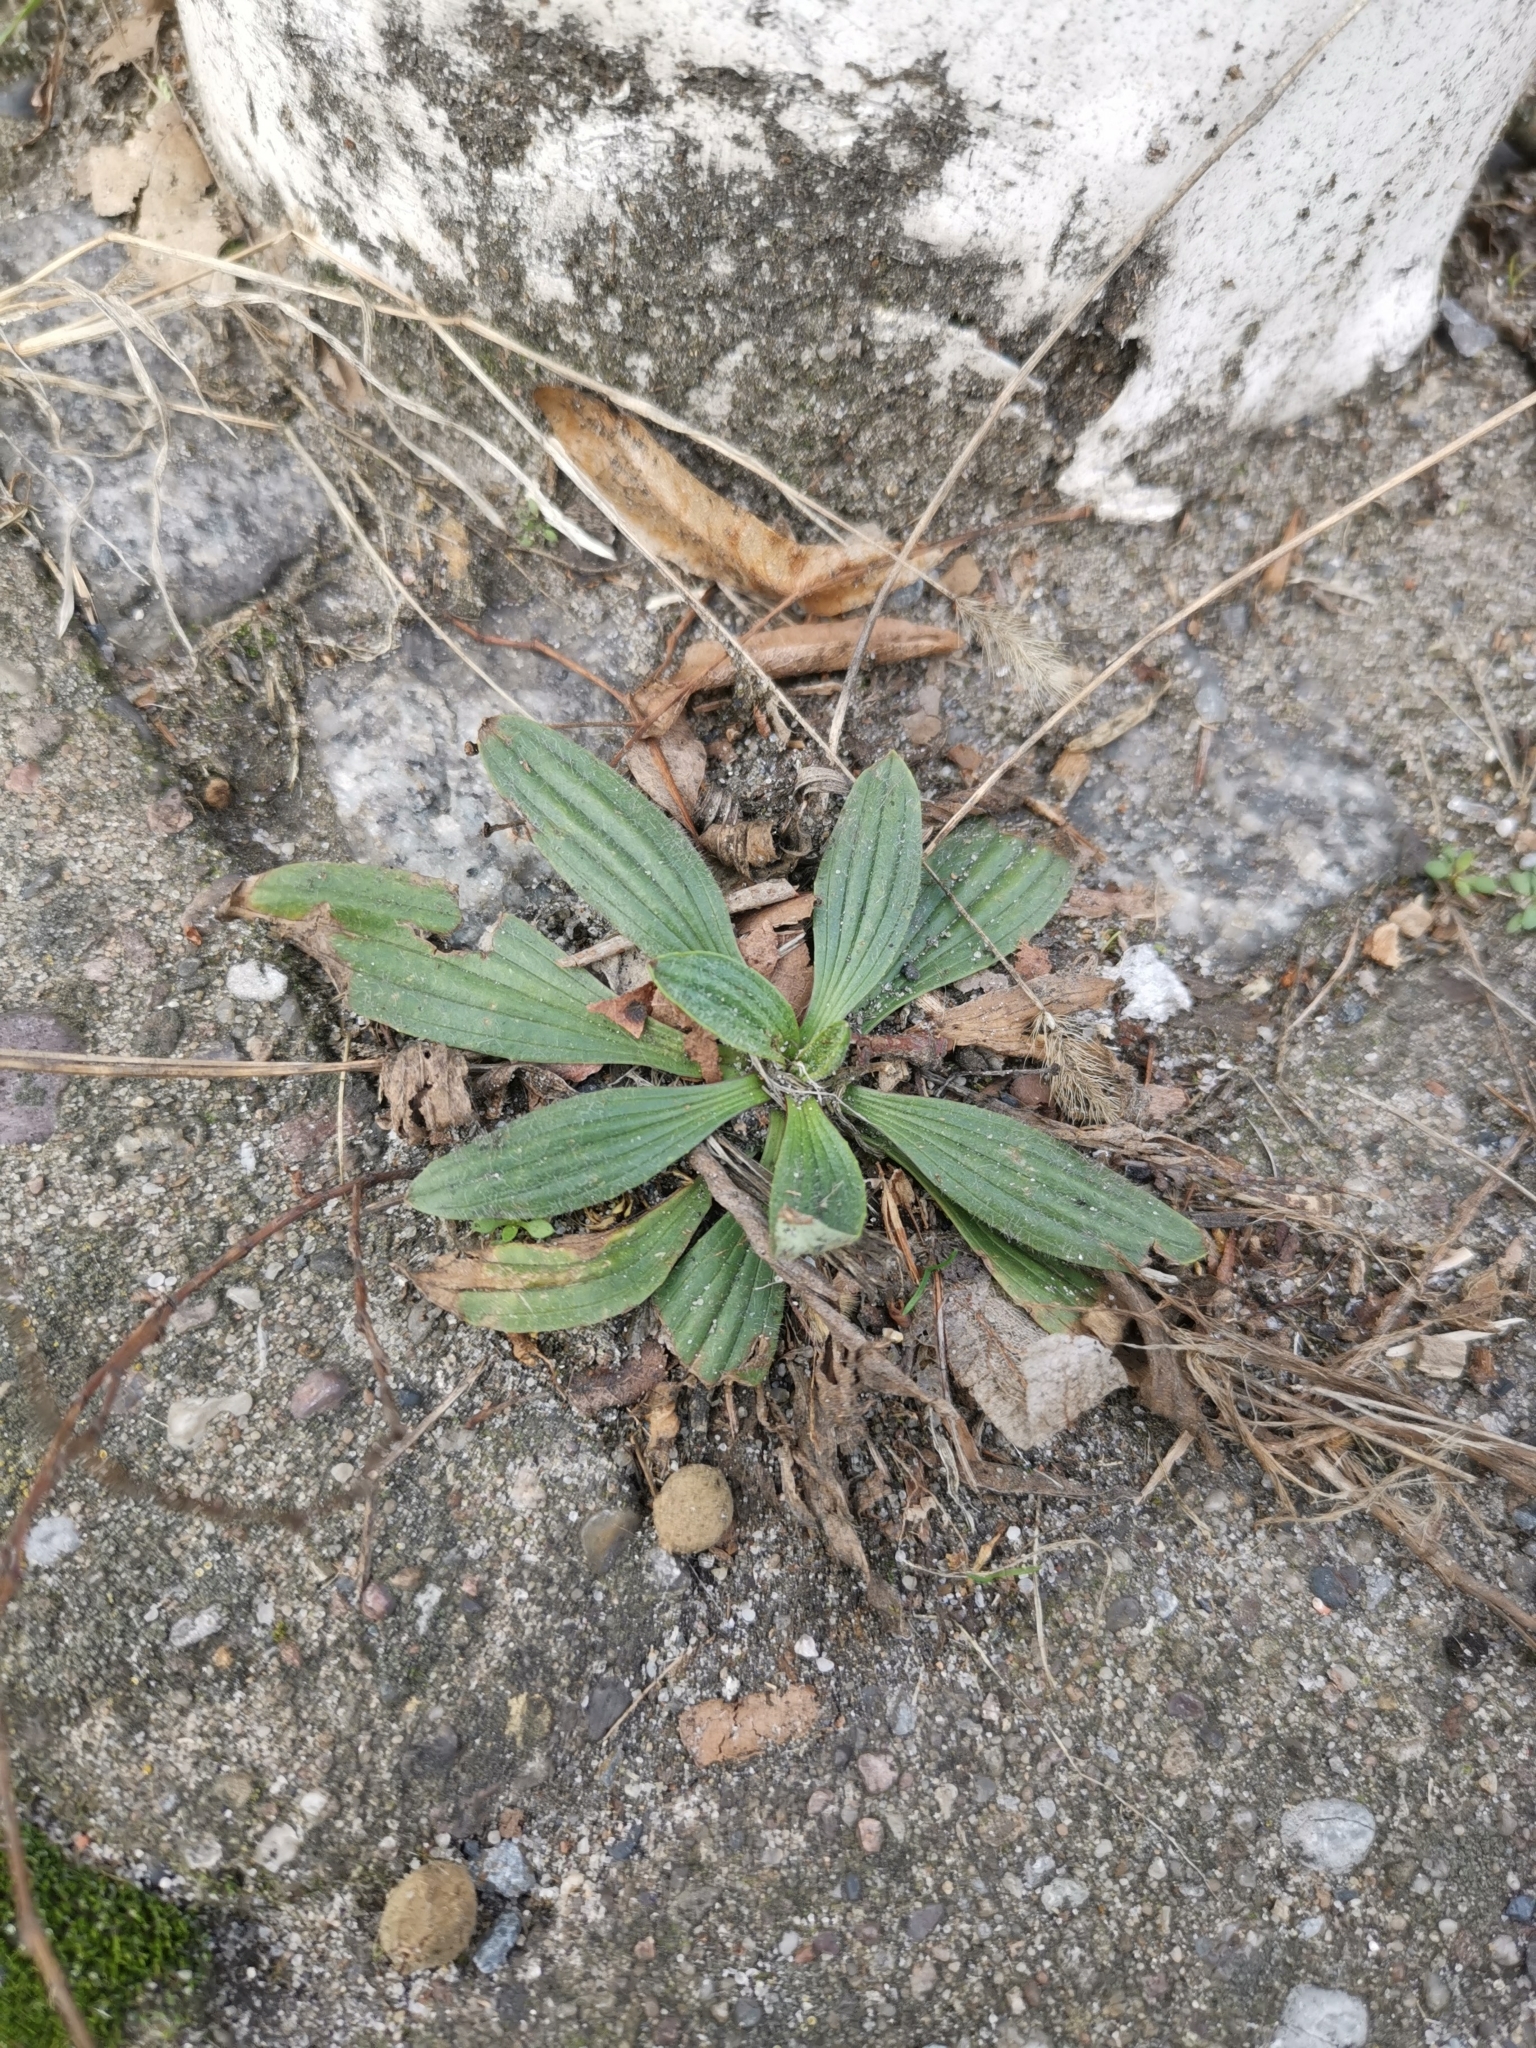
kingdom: Plantae
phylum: Tracheophyta
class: Magnoliopsida
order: Lamiales
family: Plantaginaceae
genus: Plantago
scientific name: Plantago lanceolata
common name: Ribwort plantain
